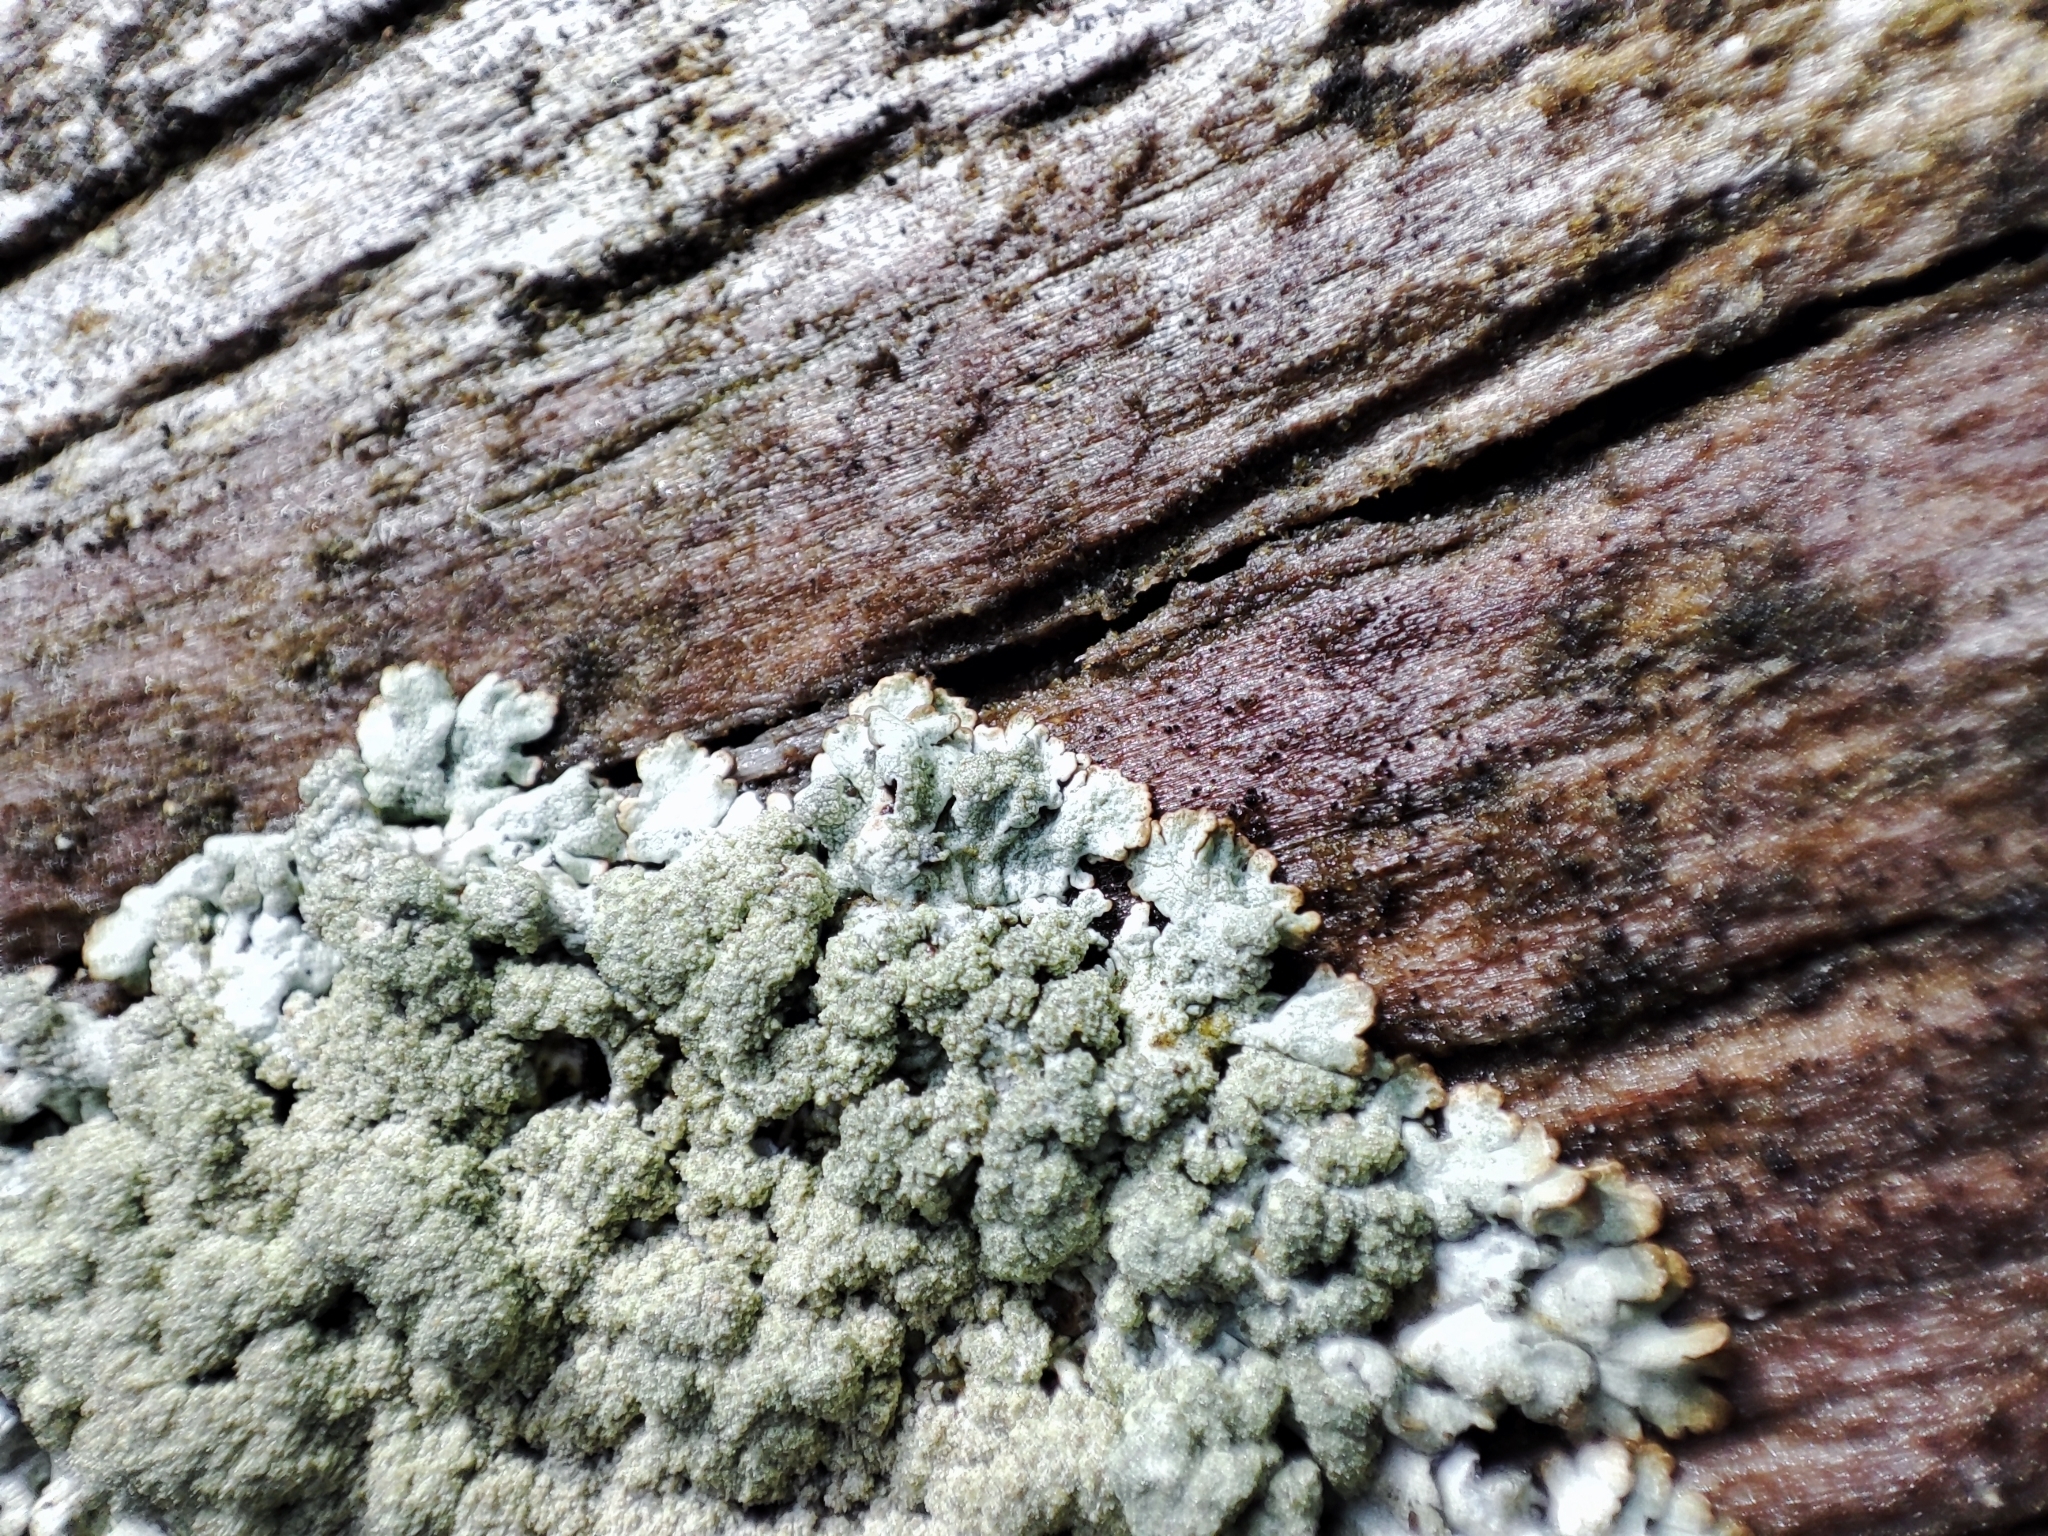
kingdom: Fungi
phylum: Ascomycota
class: Lecanoromycetes
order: Lecanorales
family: Parmeliaceae
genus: Parmeliopsis
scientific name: Parmeliopsis hyperopta
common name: Grey starburst lichen
